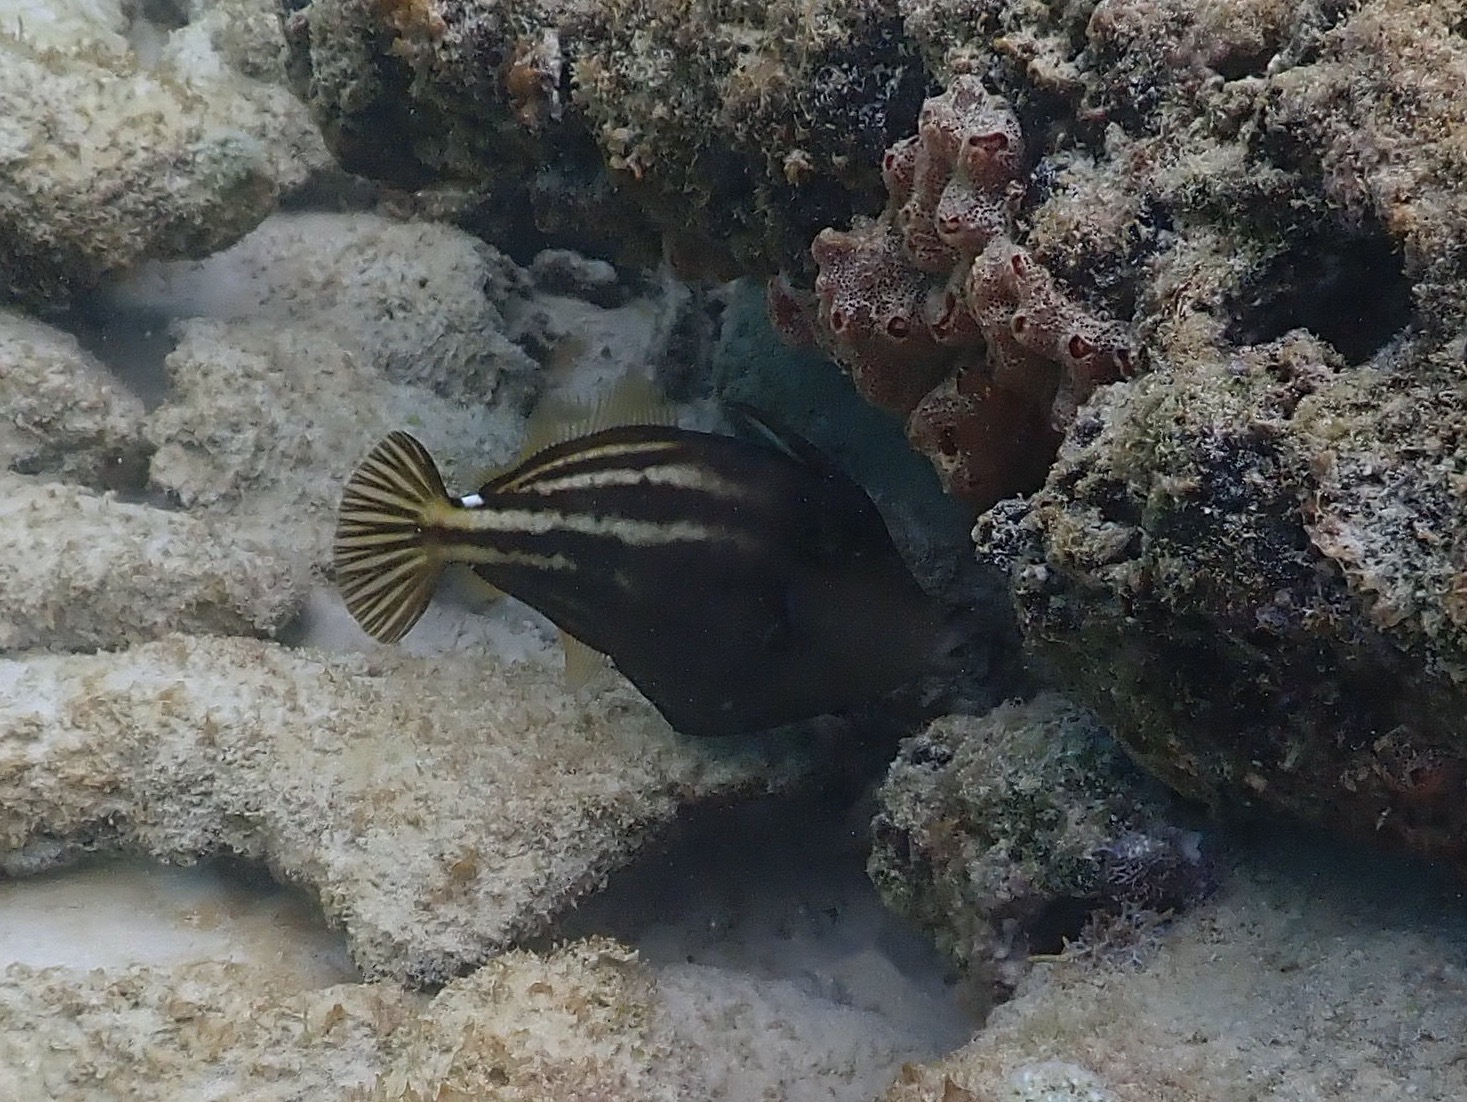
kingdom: Animalia
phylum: Chordata
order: Tetraodontiformes
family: Monacanthidae
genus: Cantherhines
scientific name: Cantherhines pullus
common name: Orangespotted filefish
